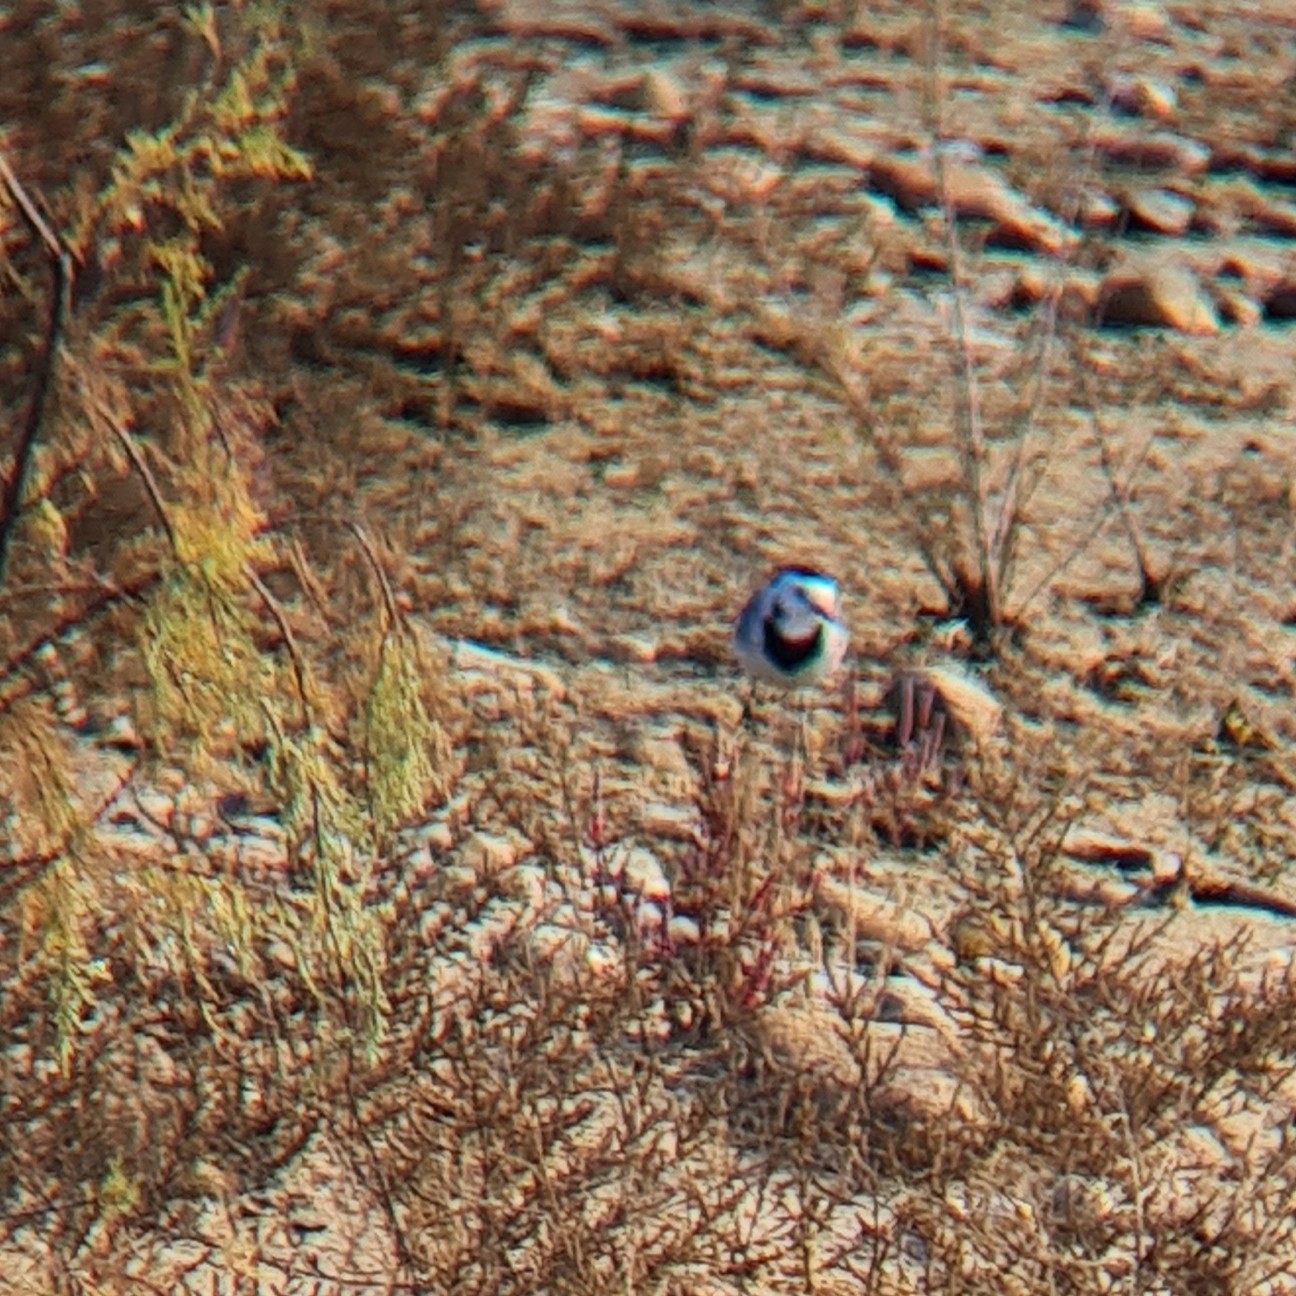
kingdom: Animalia
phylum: Chordata
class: Aves
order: Passeriformes
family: Motacillidae
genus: Motacilla
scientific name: Motacilla alba
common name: White wagtail
